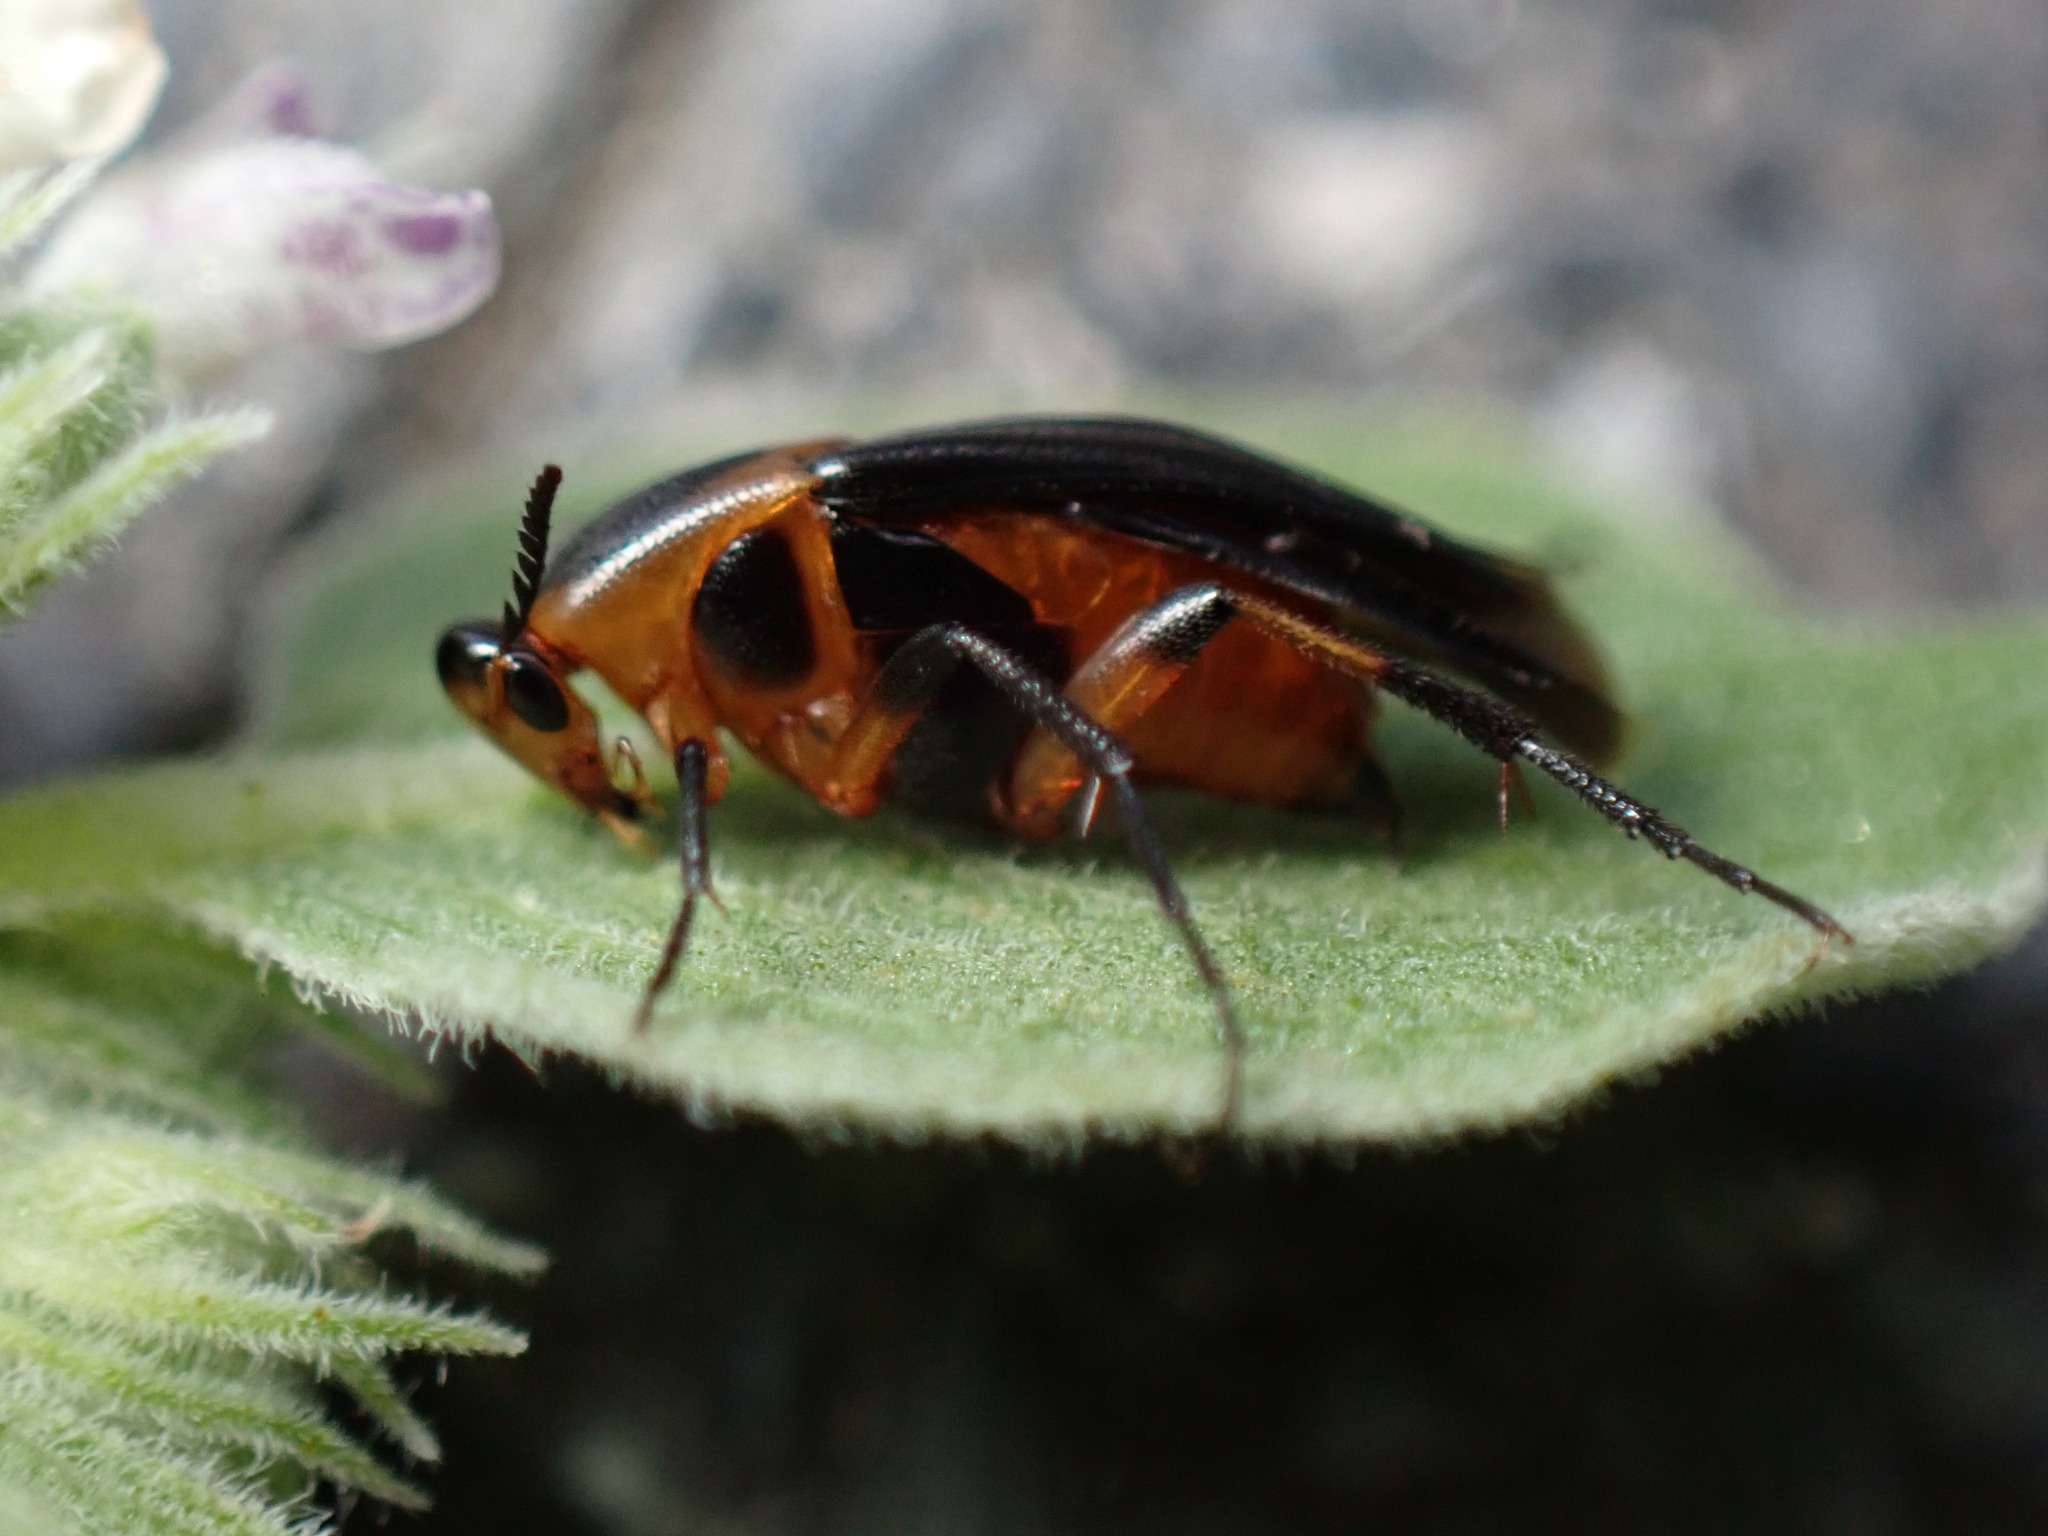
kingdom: Animalia
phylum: Arthropoda
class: Insecta
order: Coleoptera
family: Ripiphoridae
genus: Macrosiagon
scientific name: Macrosiagon limbatum
